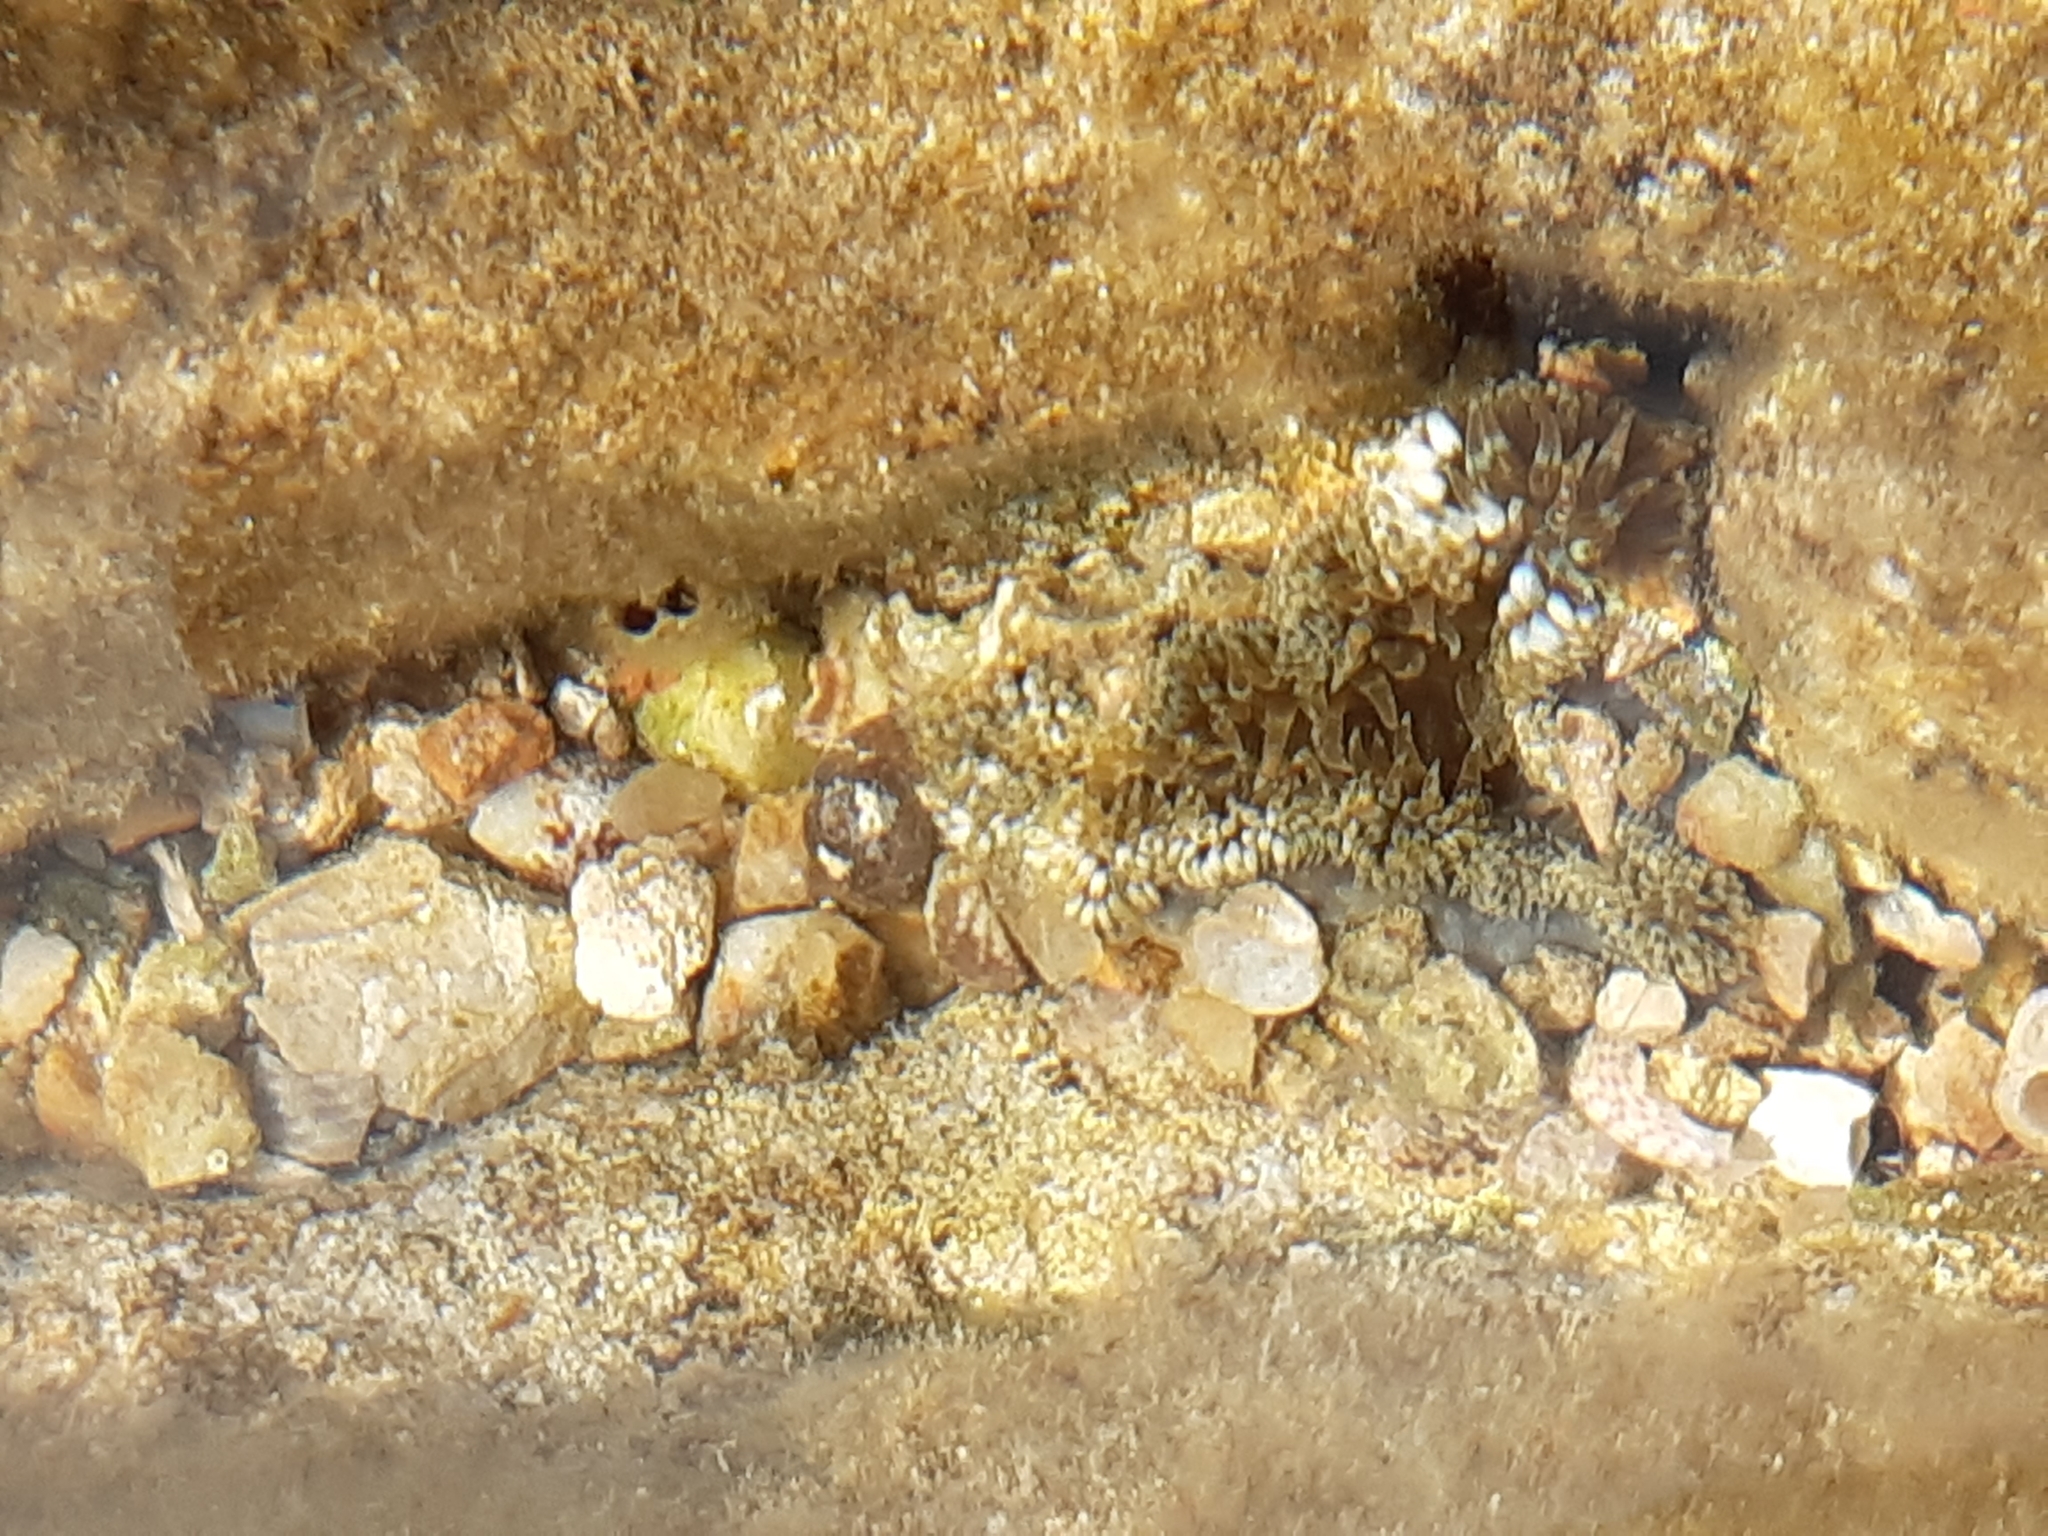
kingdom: Animalia
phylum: Cnidaria
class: Anthozoa
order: Actiniaria
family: Sagartiidae
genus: Cereus
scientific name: Cereus pedunculatus
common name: Daisy anemone
